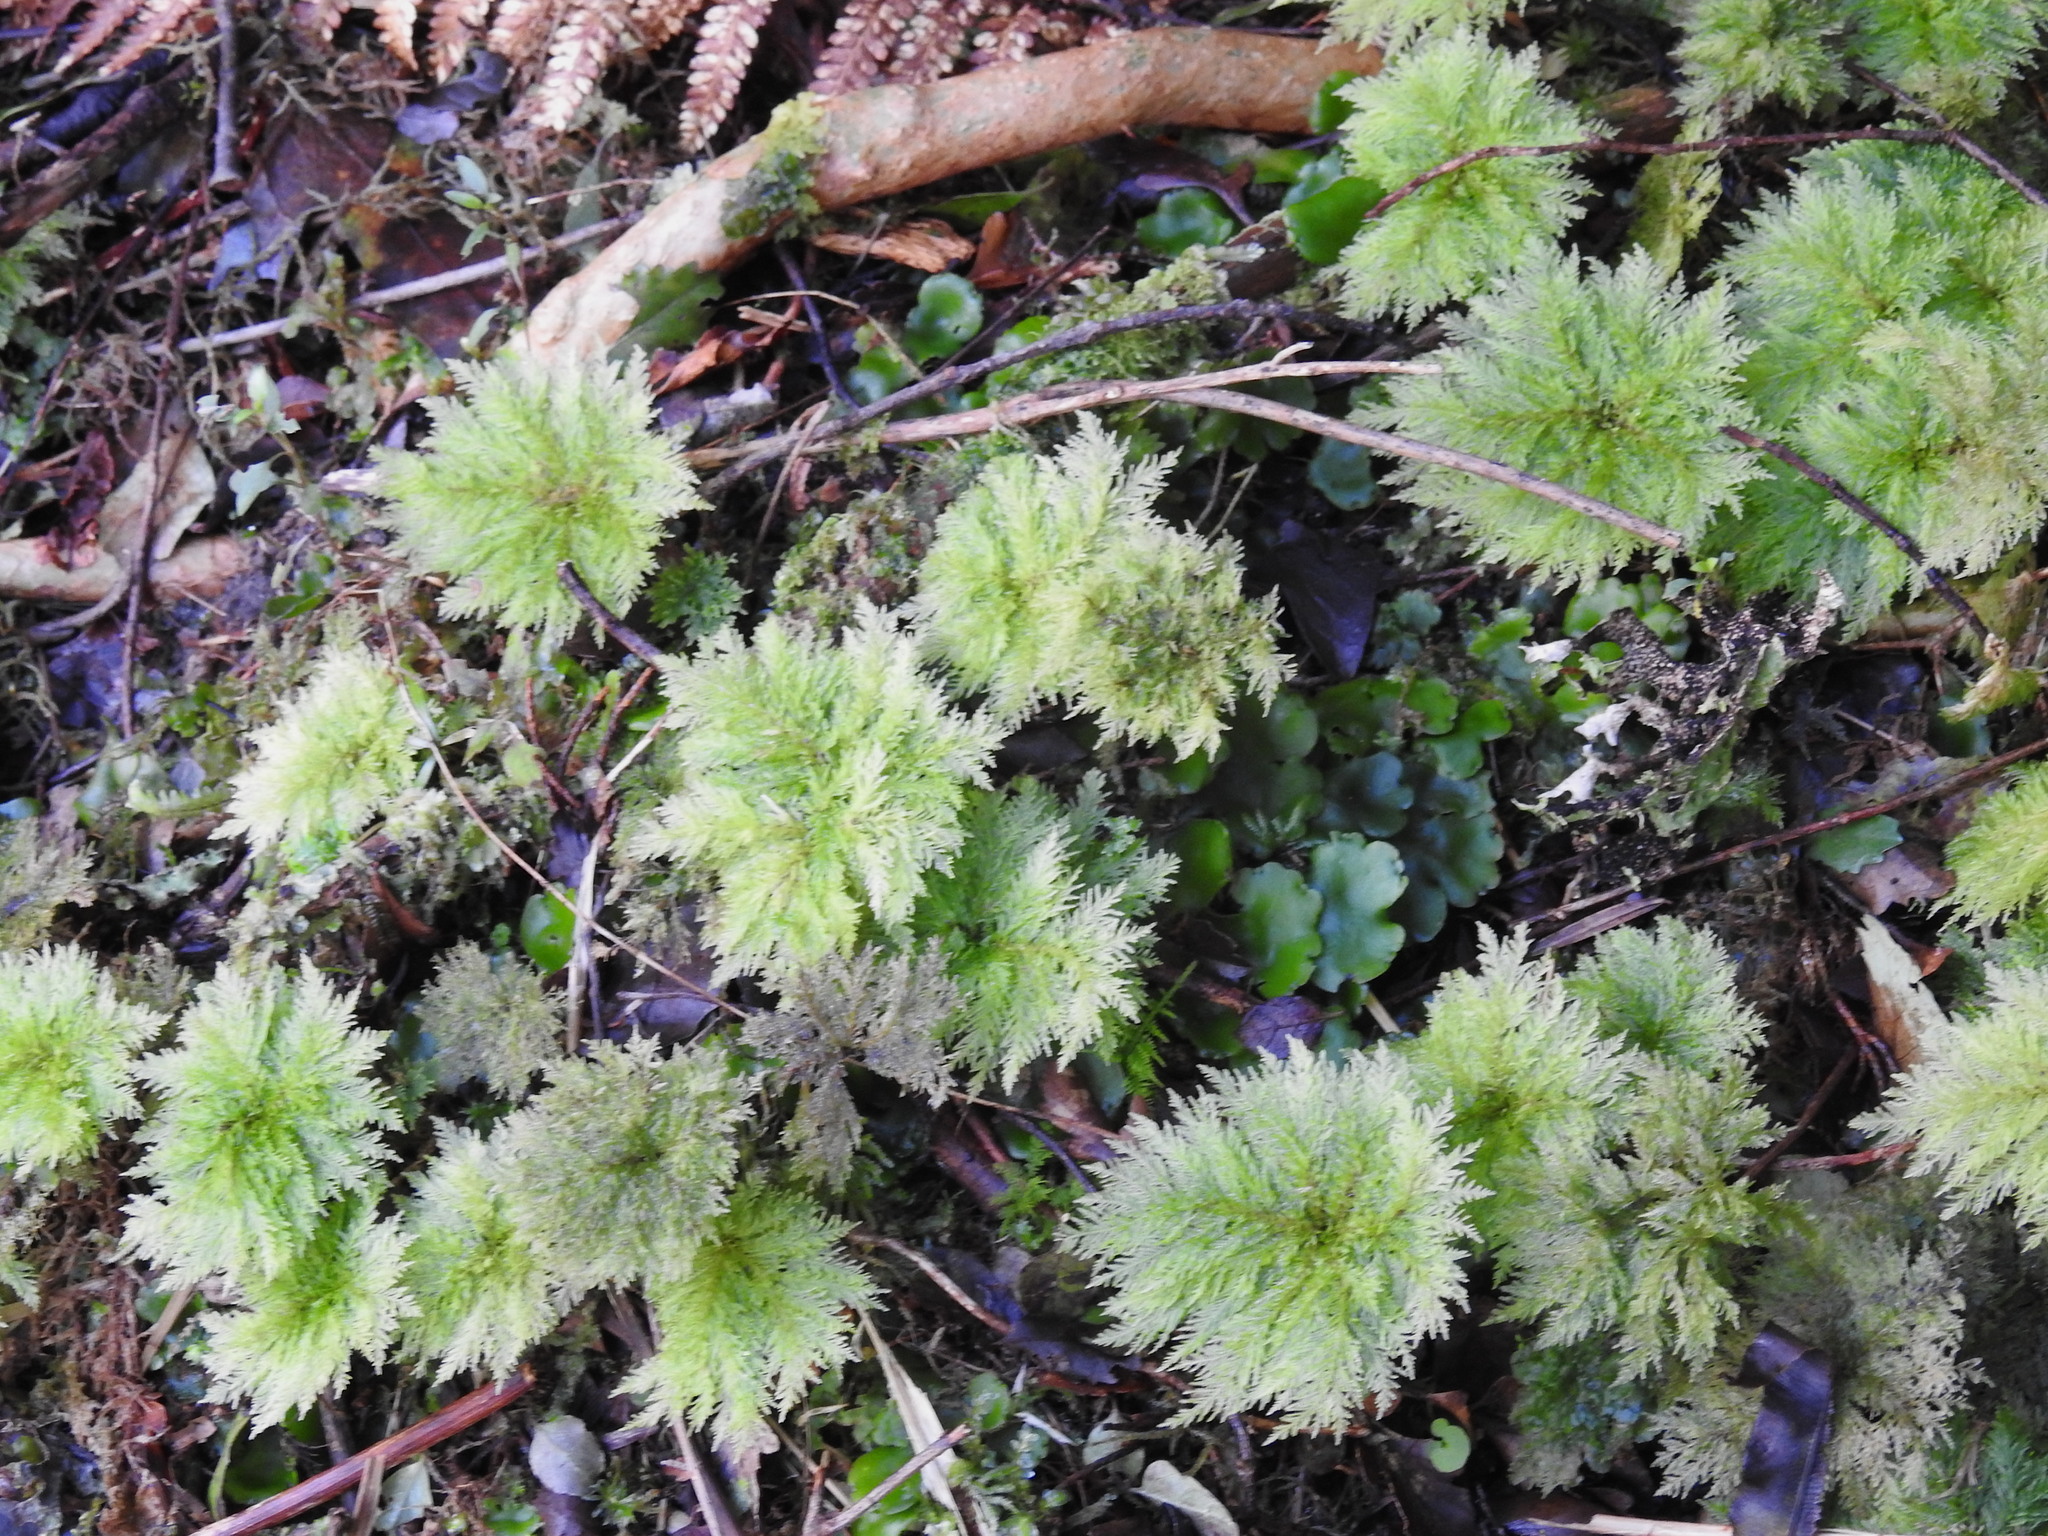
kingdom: Plantae
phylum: Bryophyta
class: Bryopsida
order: Hypopterygiales
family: Hypopterygiaceae
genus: Dendrohypopterygium
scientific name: Dendrohypopterygium filiculiforme
